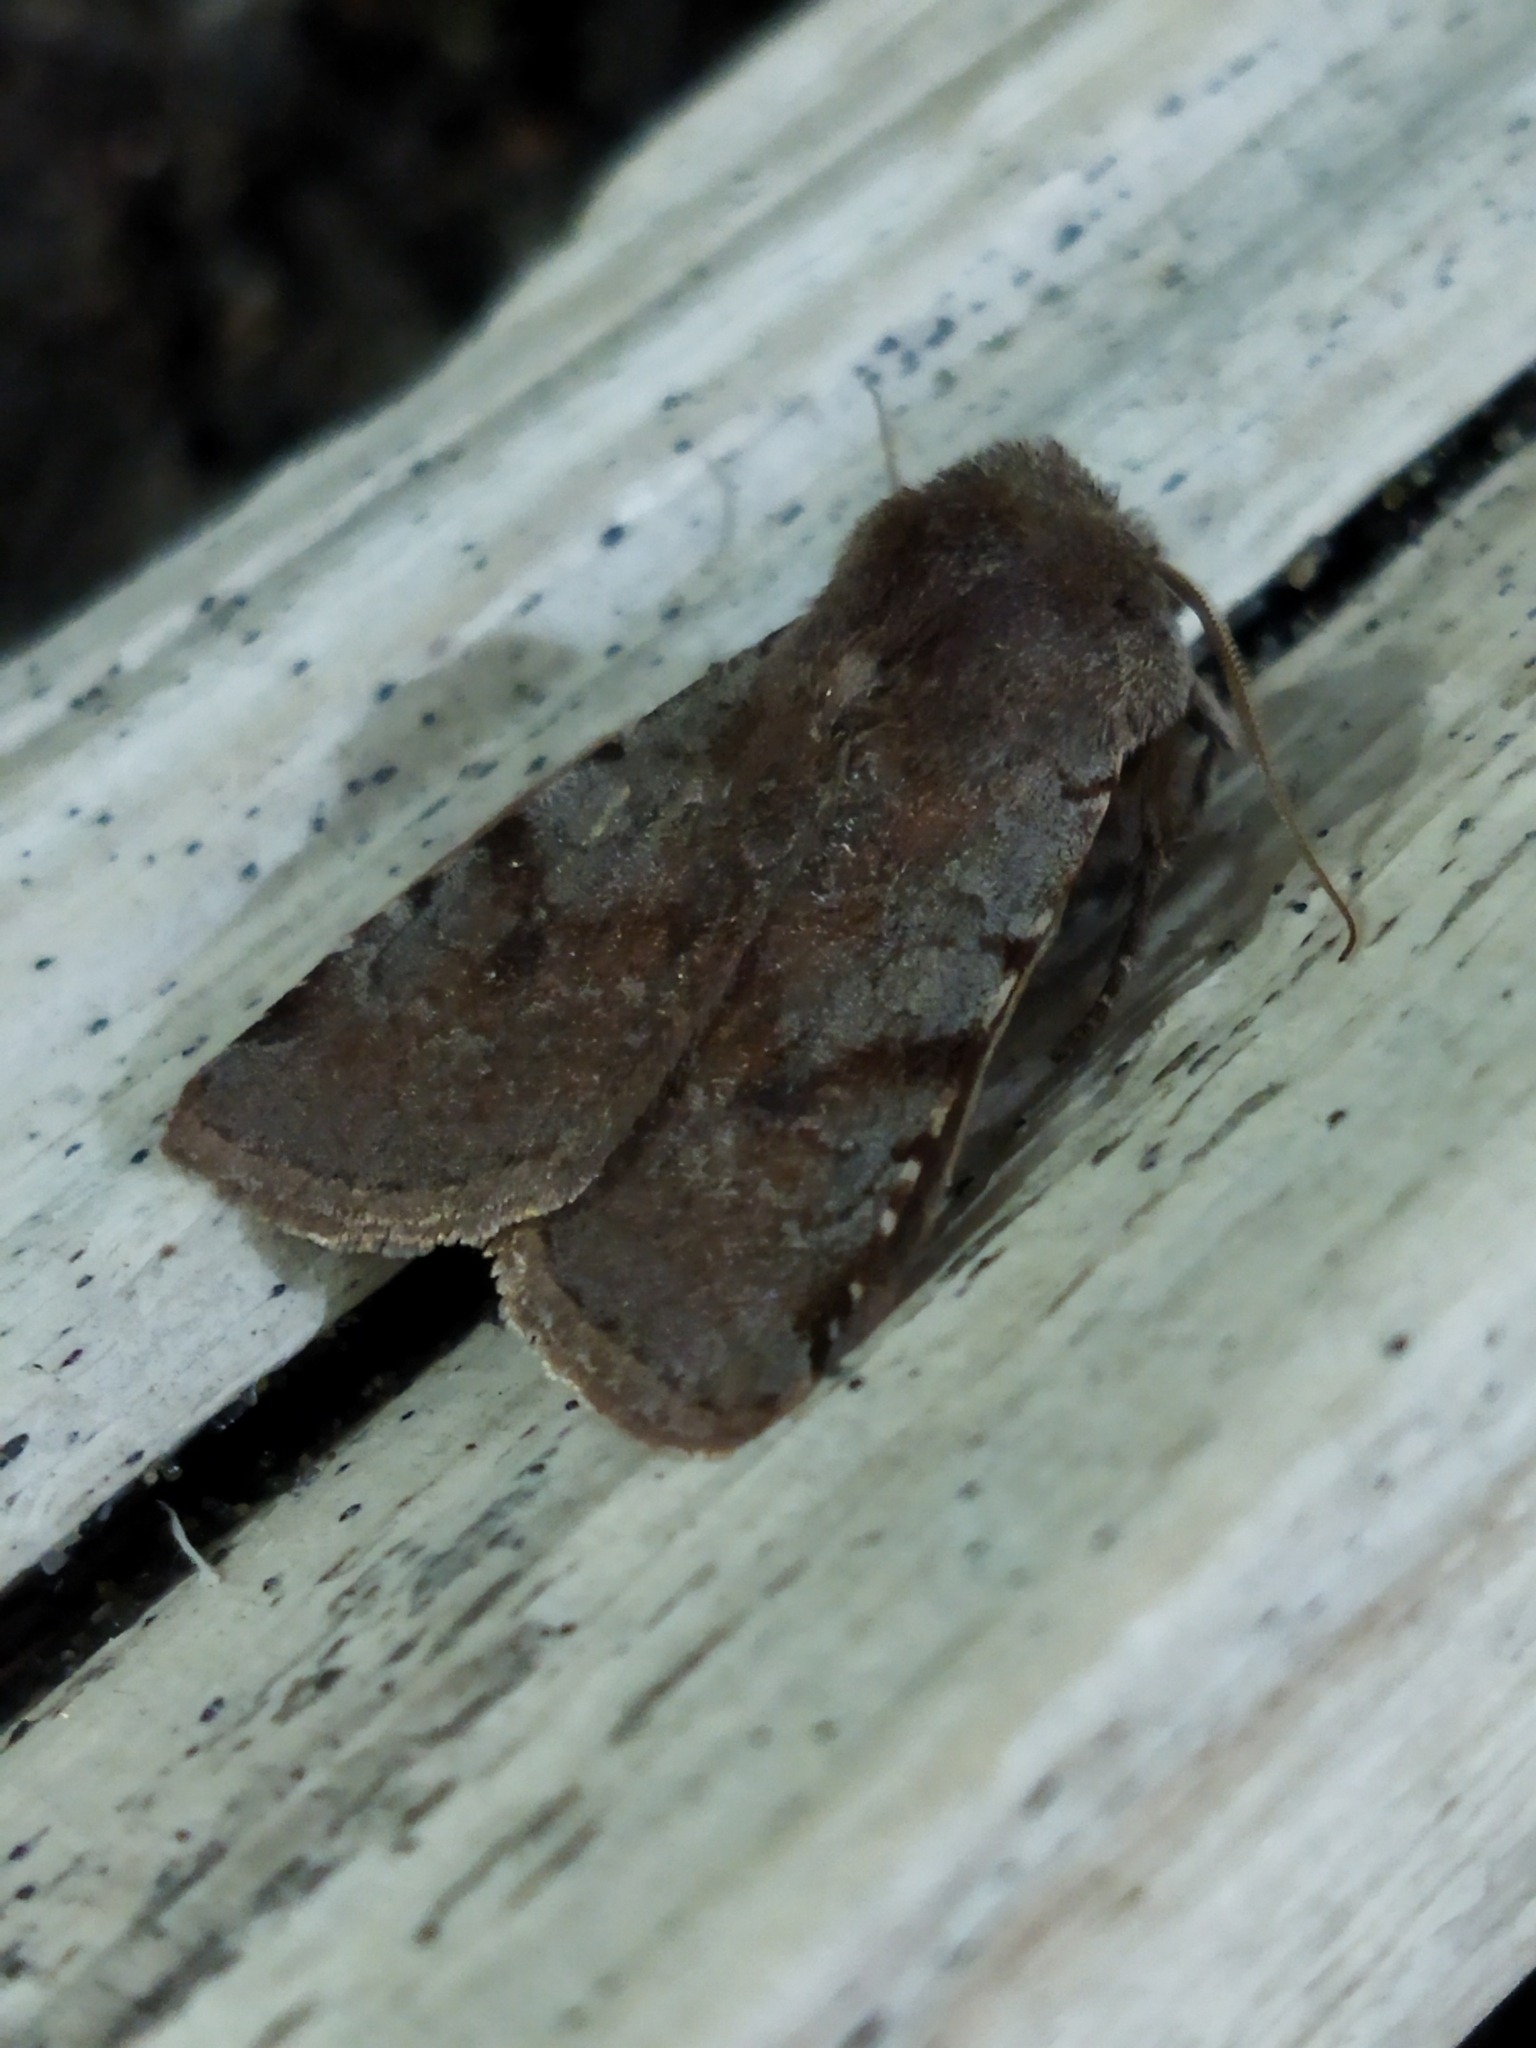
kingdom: Animalia
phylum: Arthropoda
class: Insecta
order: Lepidoptera
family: Noctuidae
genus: Cerastis
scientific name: Cerastis rubricosa
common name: Red chestnut
